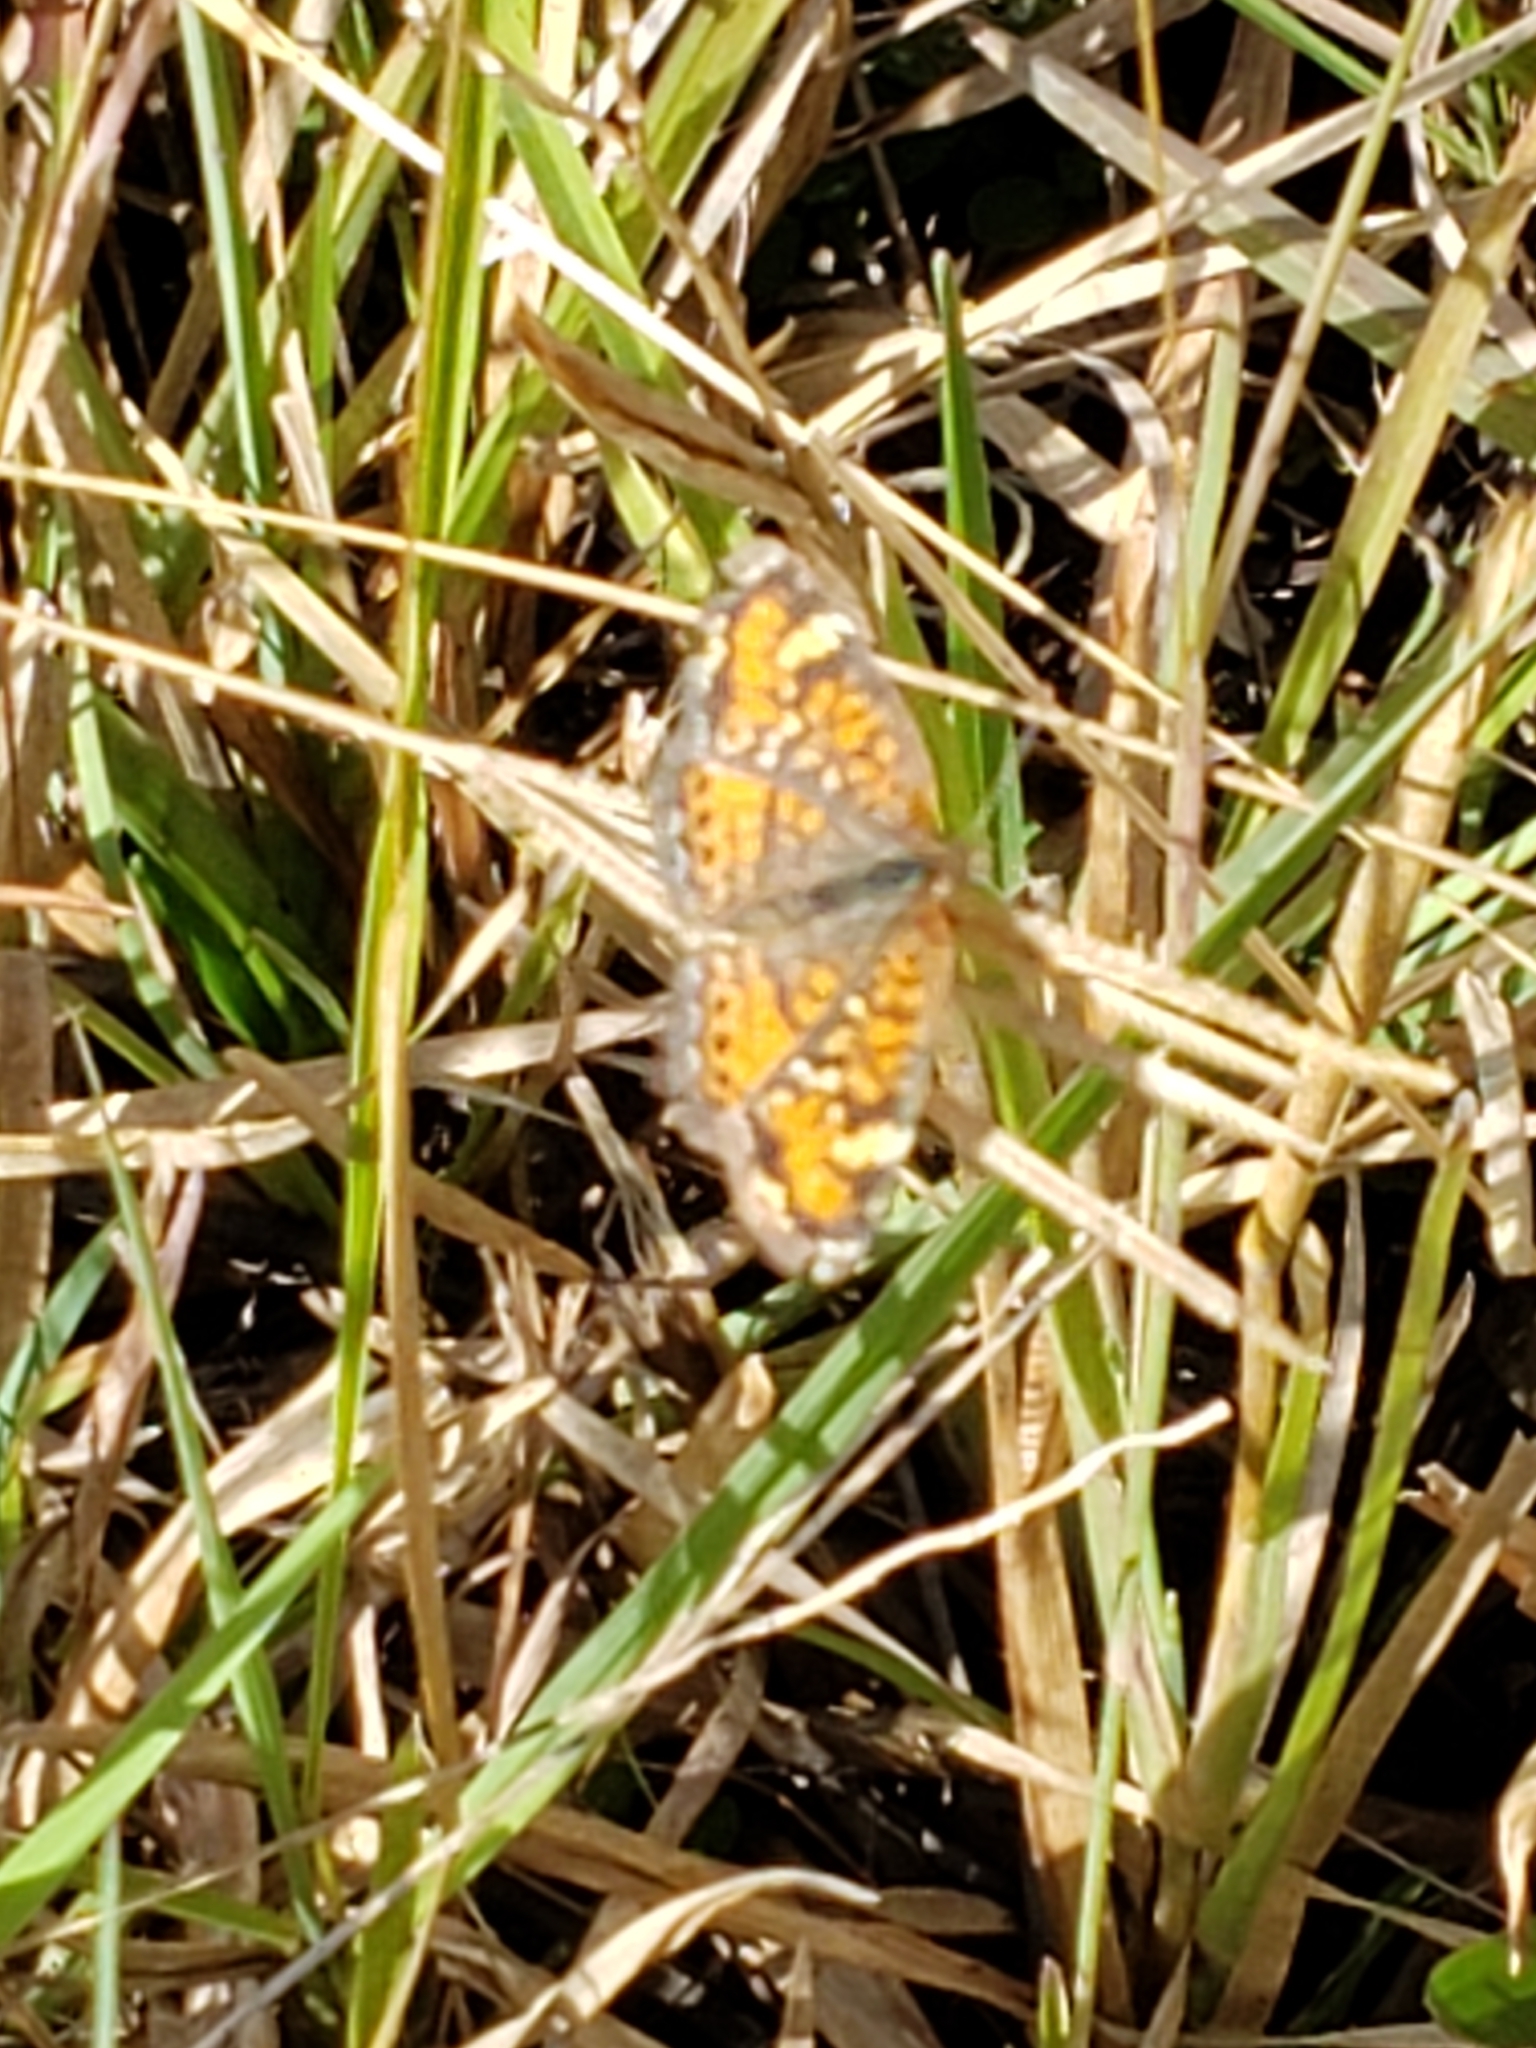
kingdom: Animalia
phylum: Arthropoda
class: Insecta
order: Lepidoptera
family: Nymphalidae
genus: Phyciodes
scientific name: Phyciodes phaon
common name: Phaon crescent
